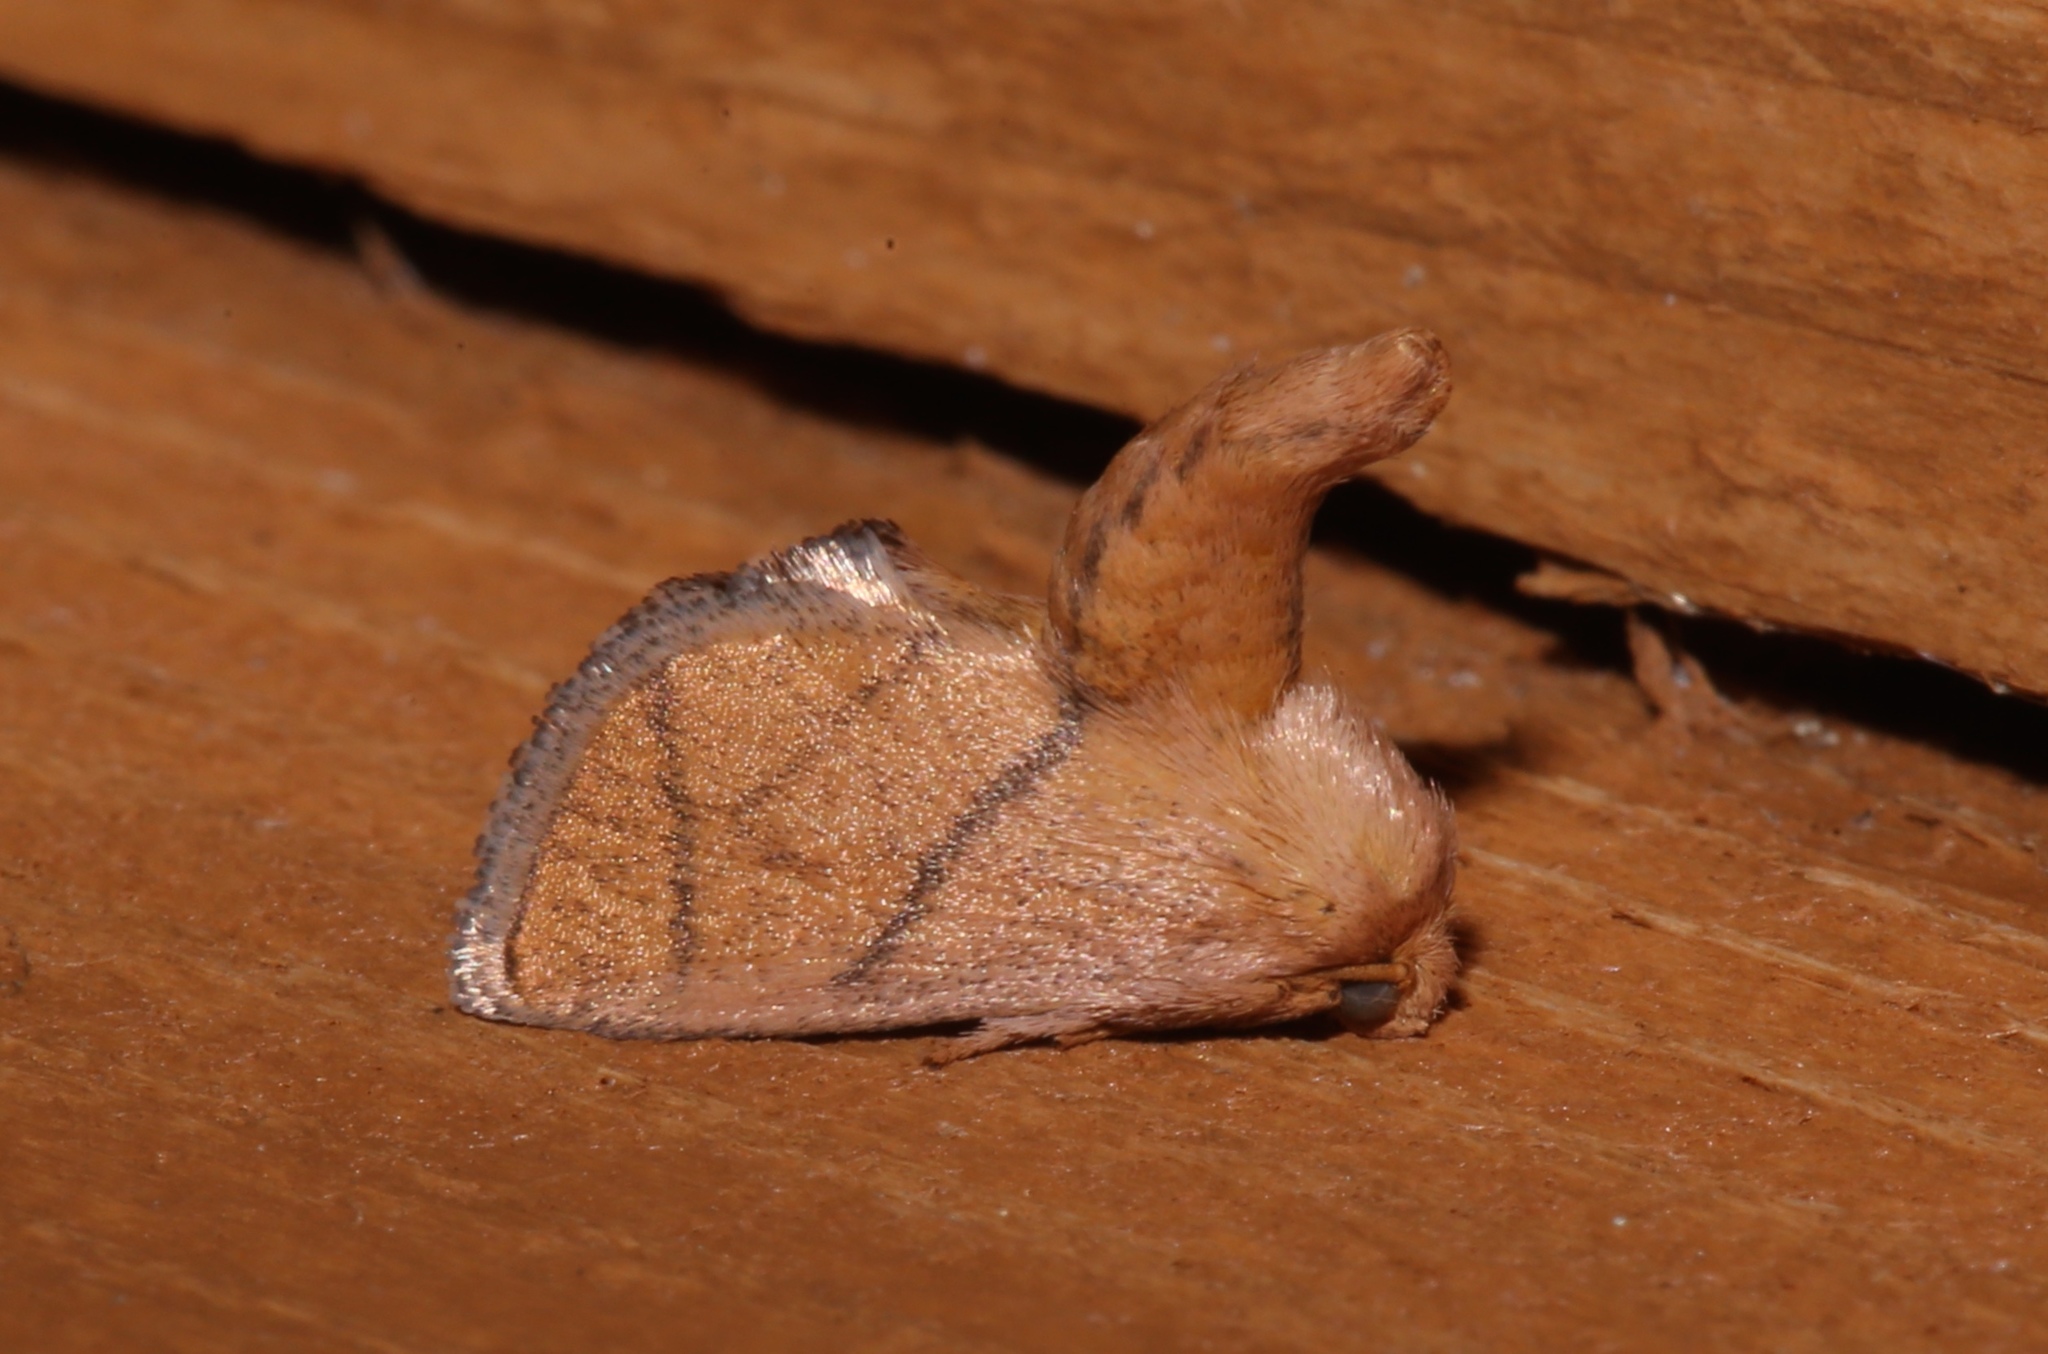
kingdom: Animalia
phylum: Arthropoda
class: Insecta
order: Lepidoptera
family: Limacodidae
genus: Apoda
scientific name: Apoda y-inversa
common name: Yellow-collared slug moth
